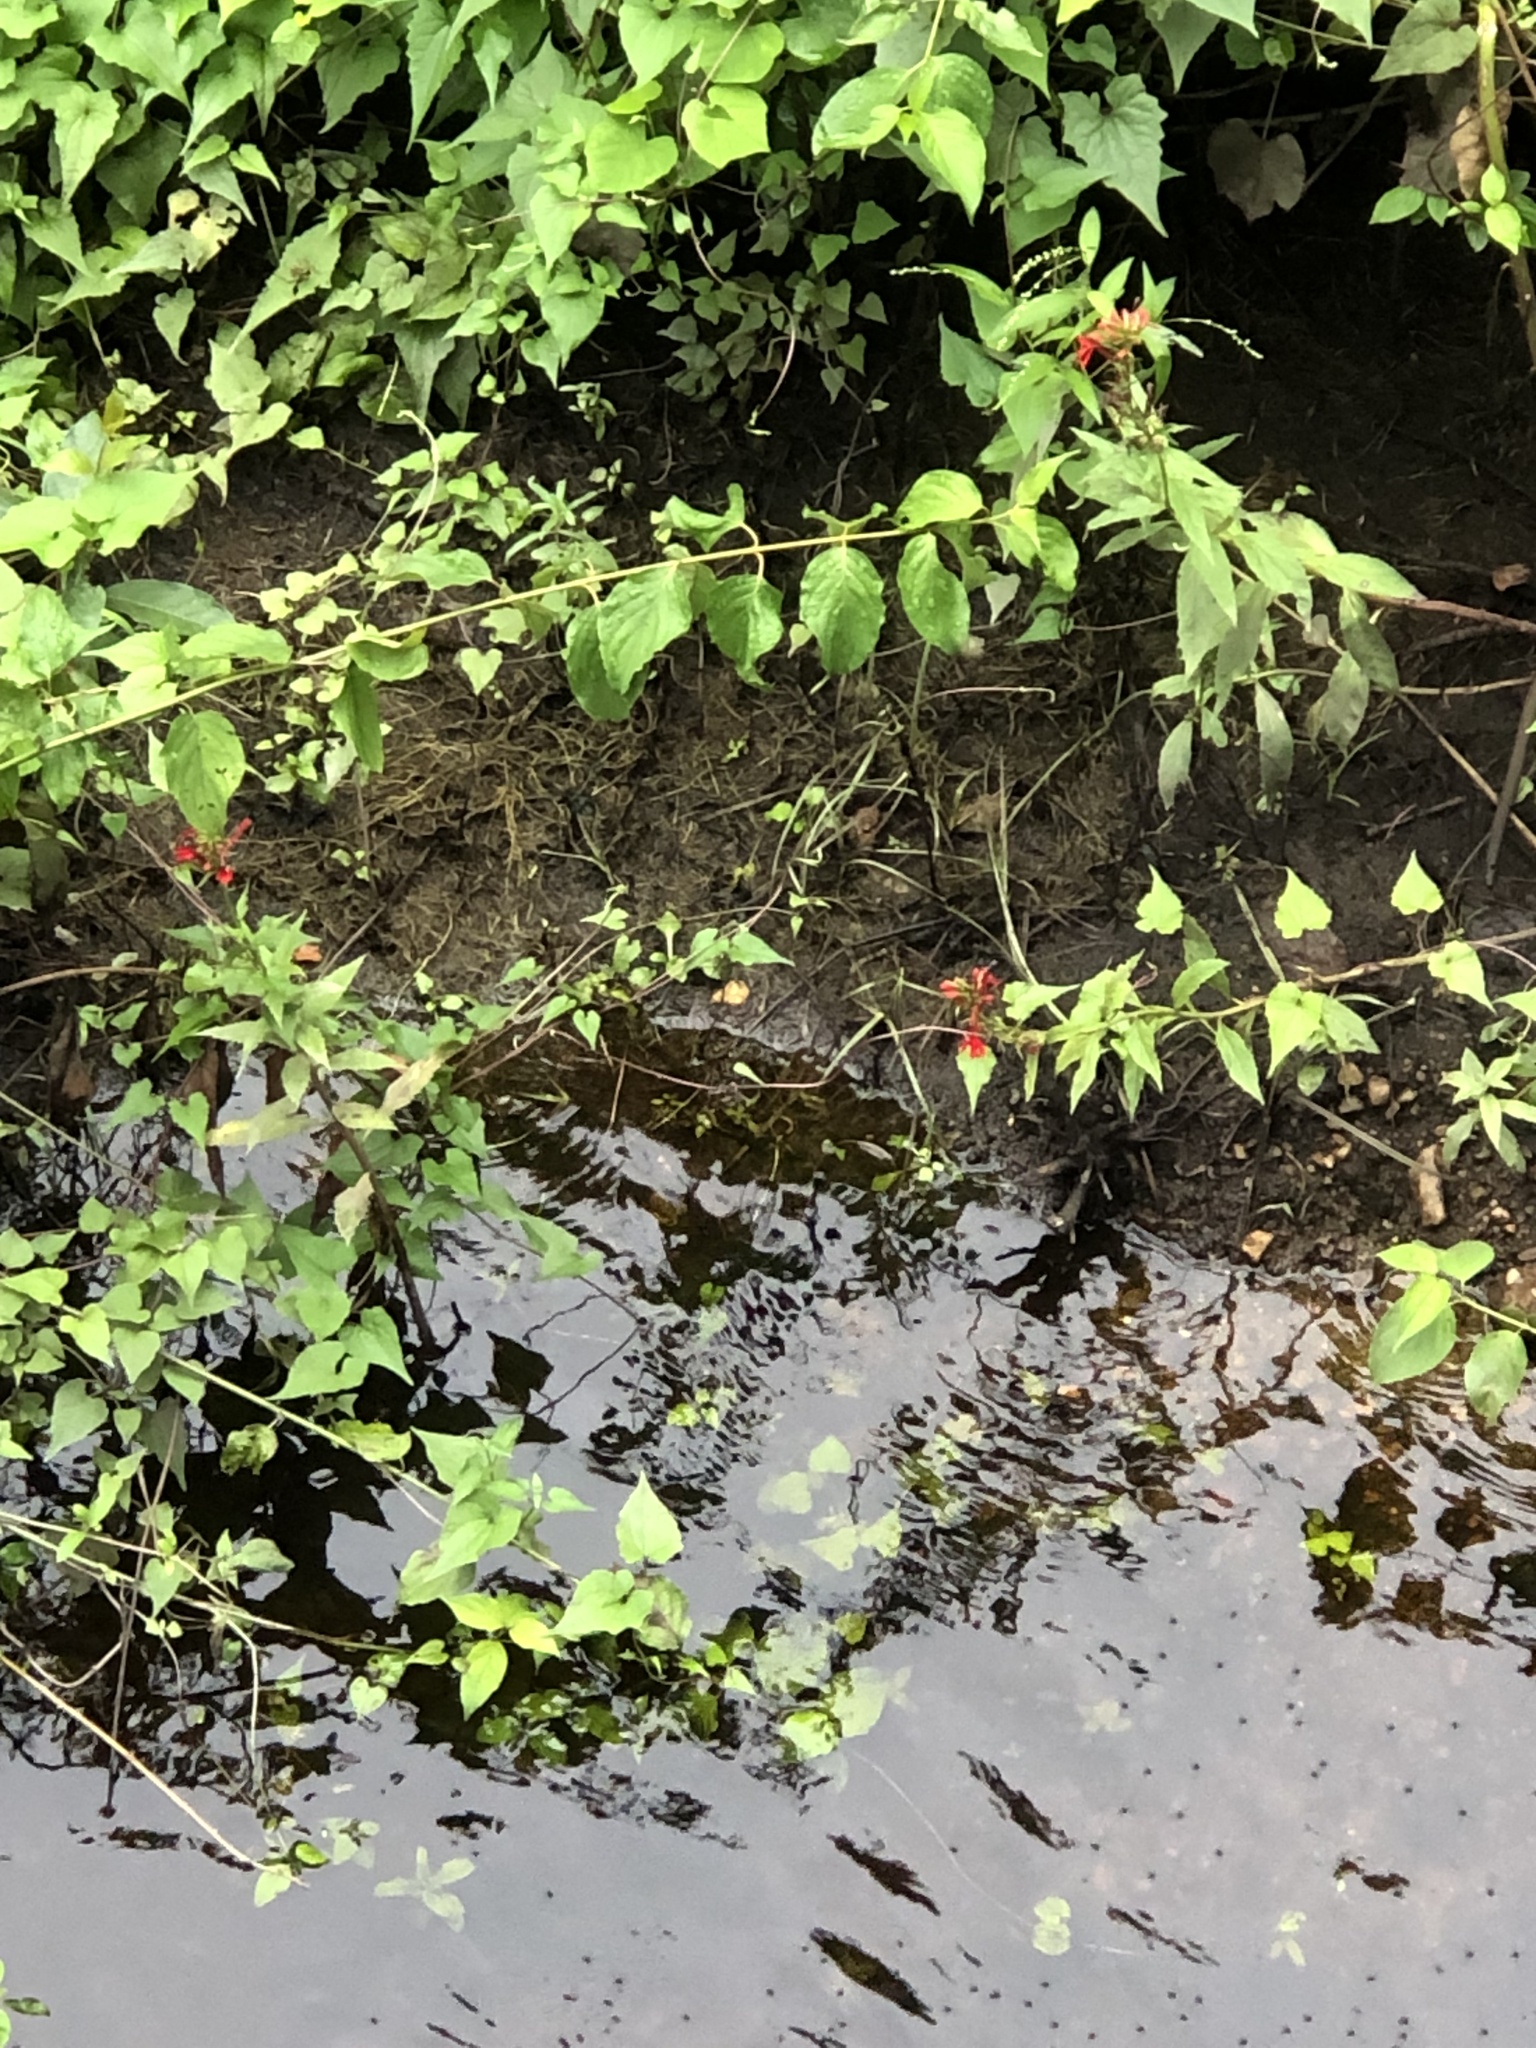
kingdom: Plantae
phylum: Tracheophyta
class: Magnoliopsida
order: Asterales
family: Campanulaceae
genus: Lobelia
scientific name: Lobelia cardinalis
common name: Cardinal flower
